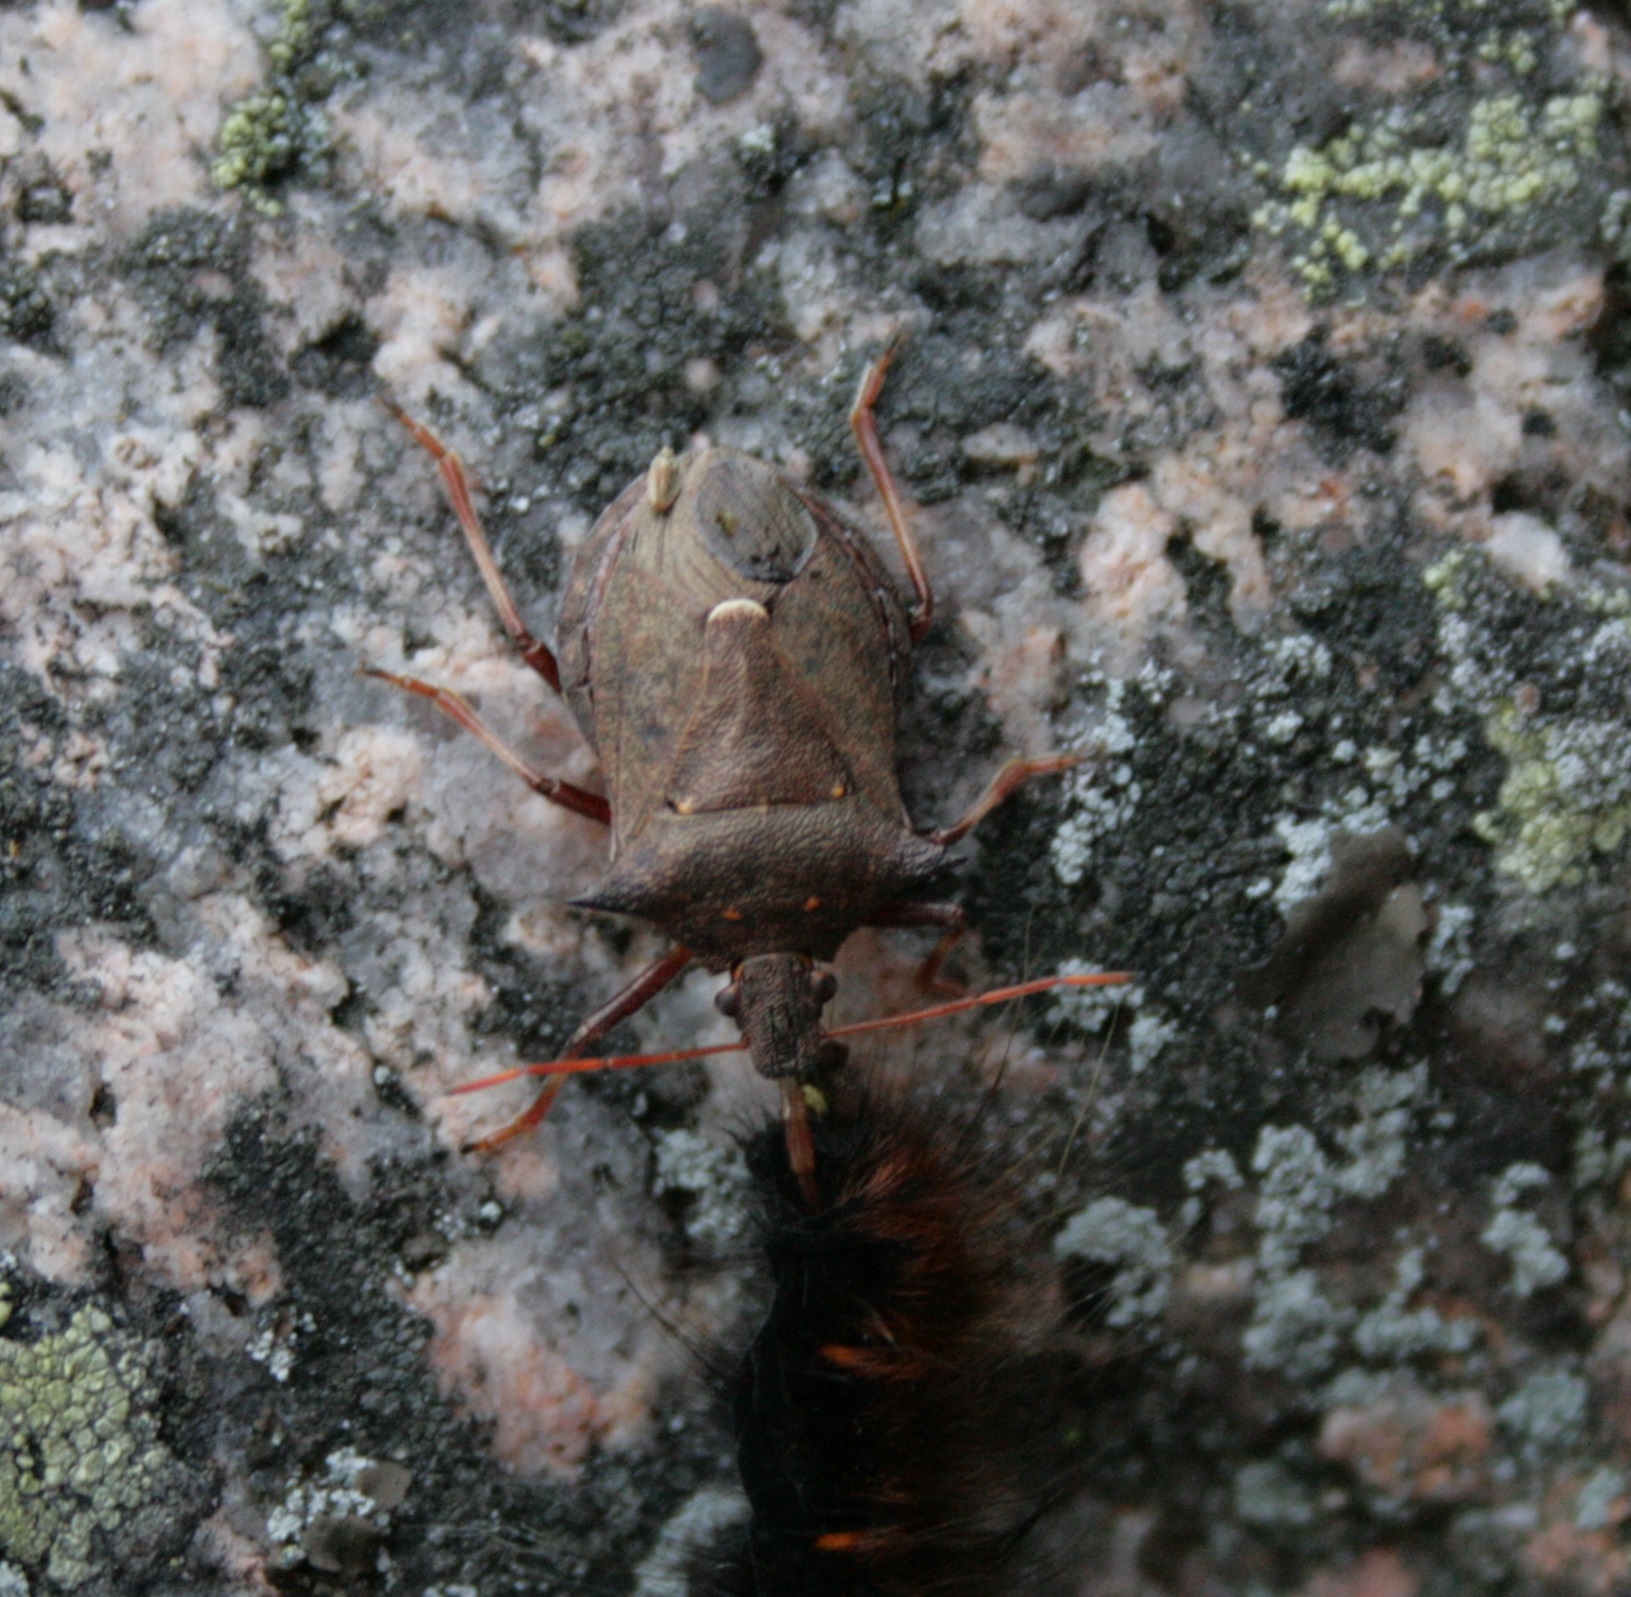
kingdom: Animalia
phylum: Arthropoda
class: Insecta
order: Hemiptera
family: Pentatomidae
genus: Picromerus
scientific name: Picromerus bidens
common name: Spiked shieldbug
